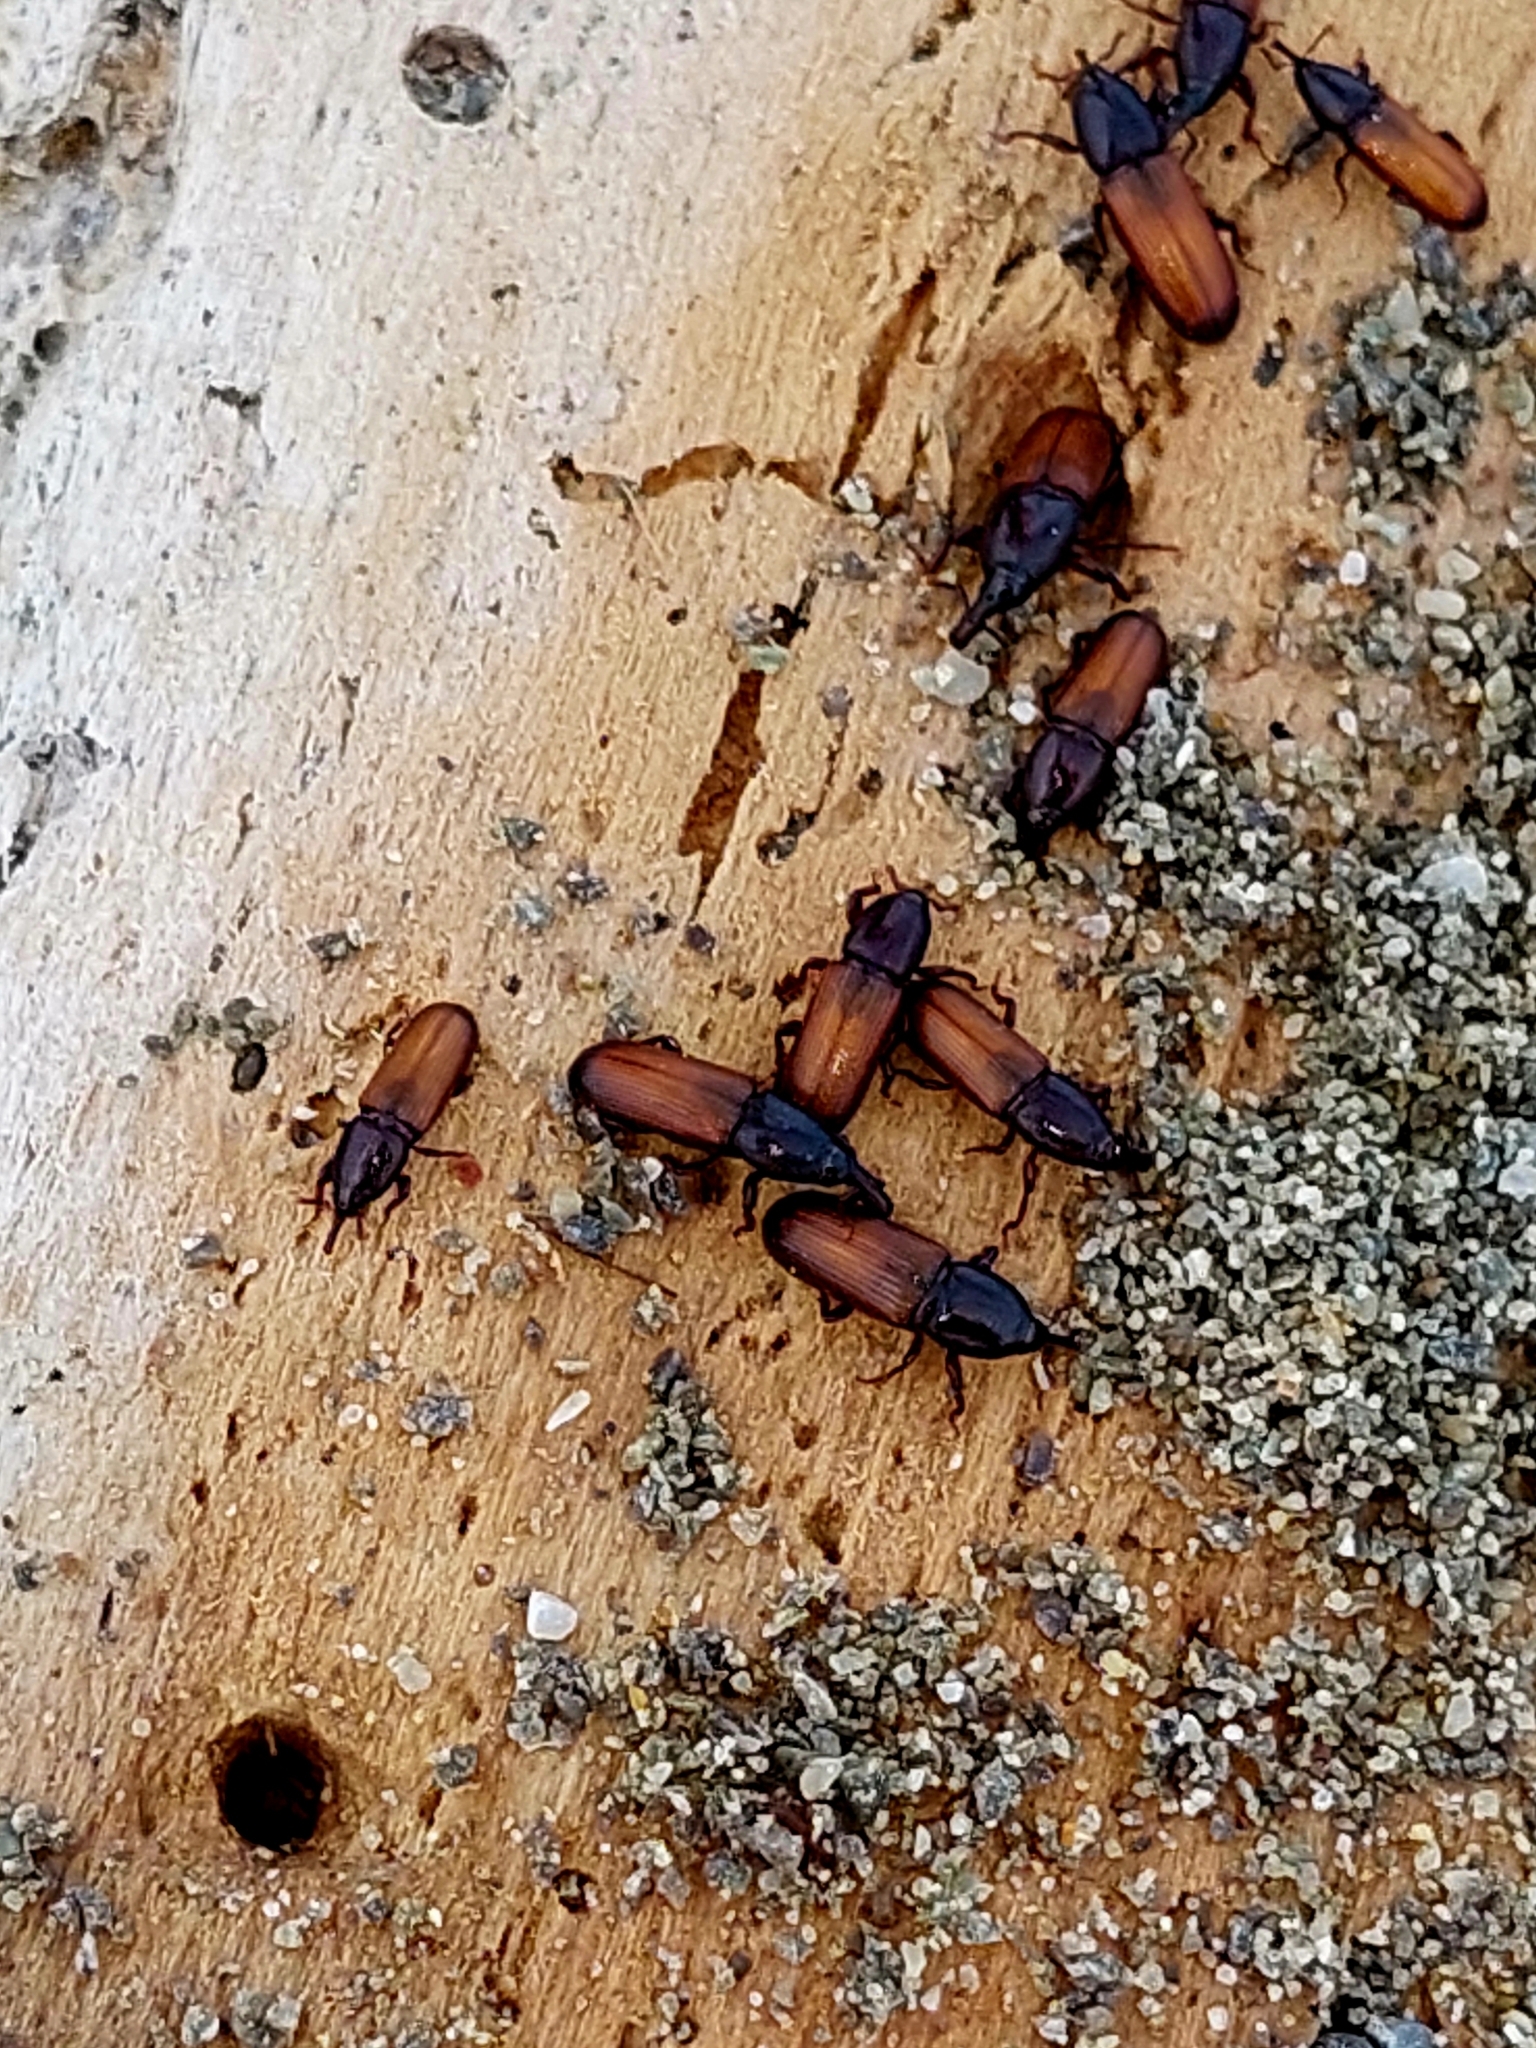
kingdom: Animalia
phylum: Arthropoda
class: Insecta
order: Coleoptera
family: Curculionidae
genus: Mesites
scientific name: Mesites pallidipennis
